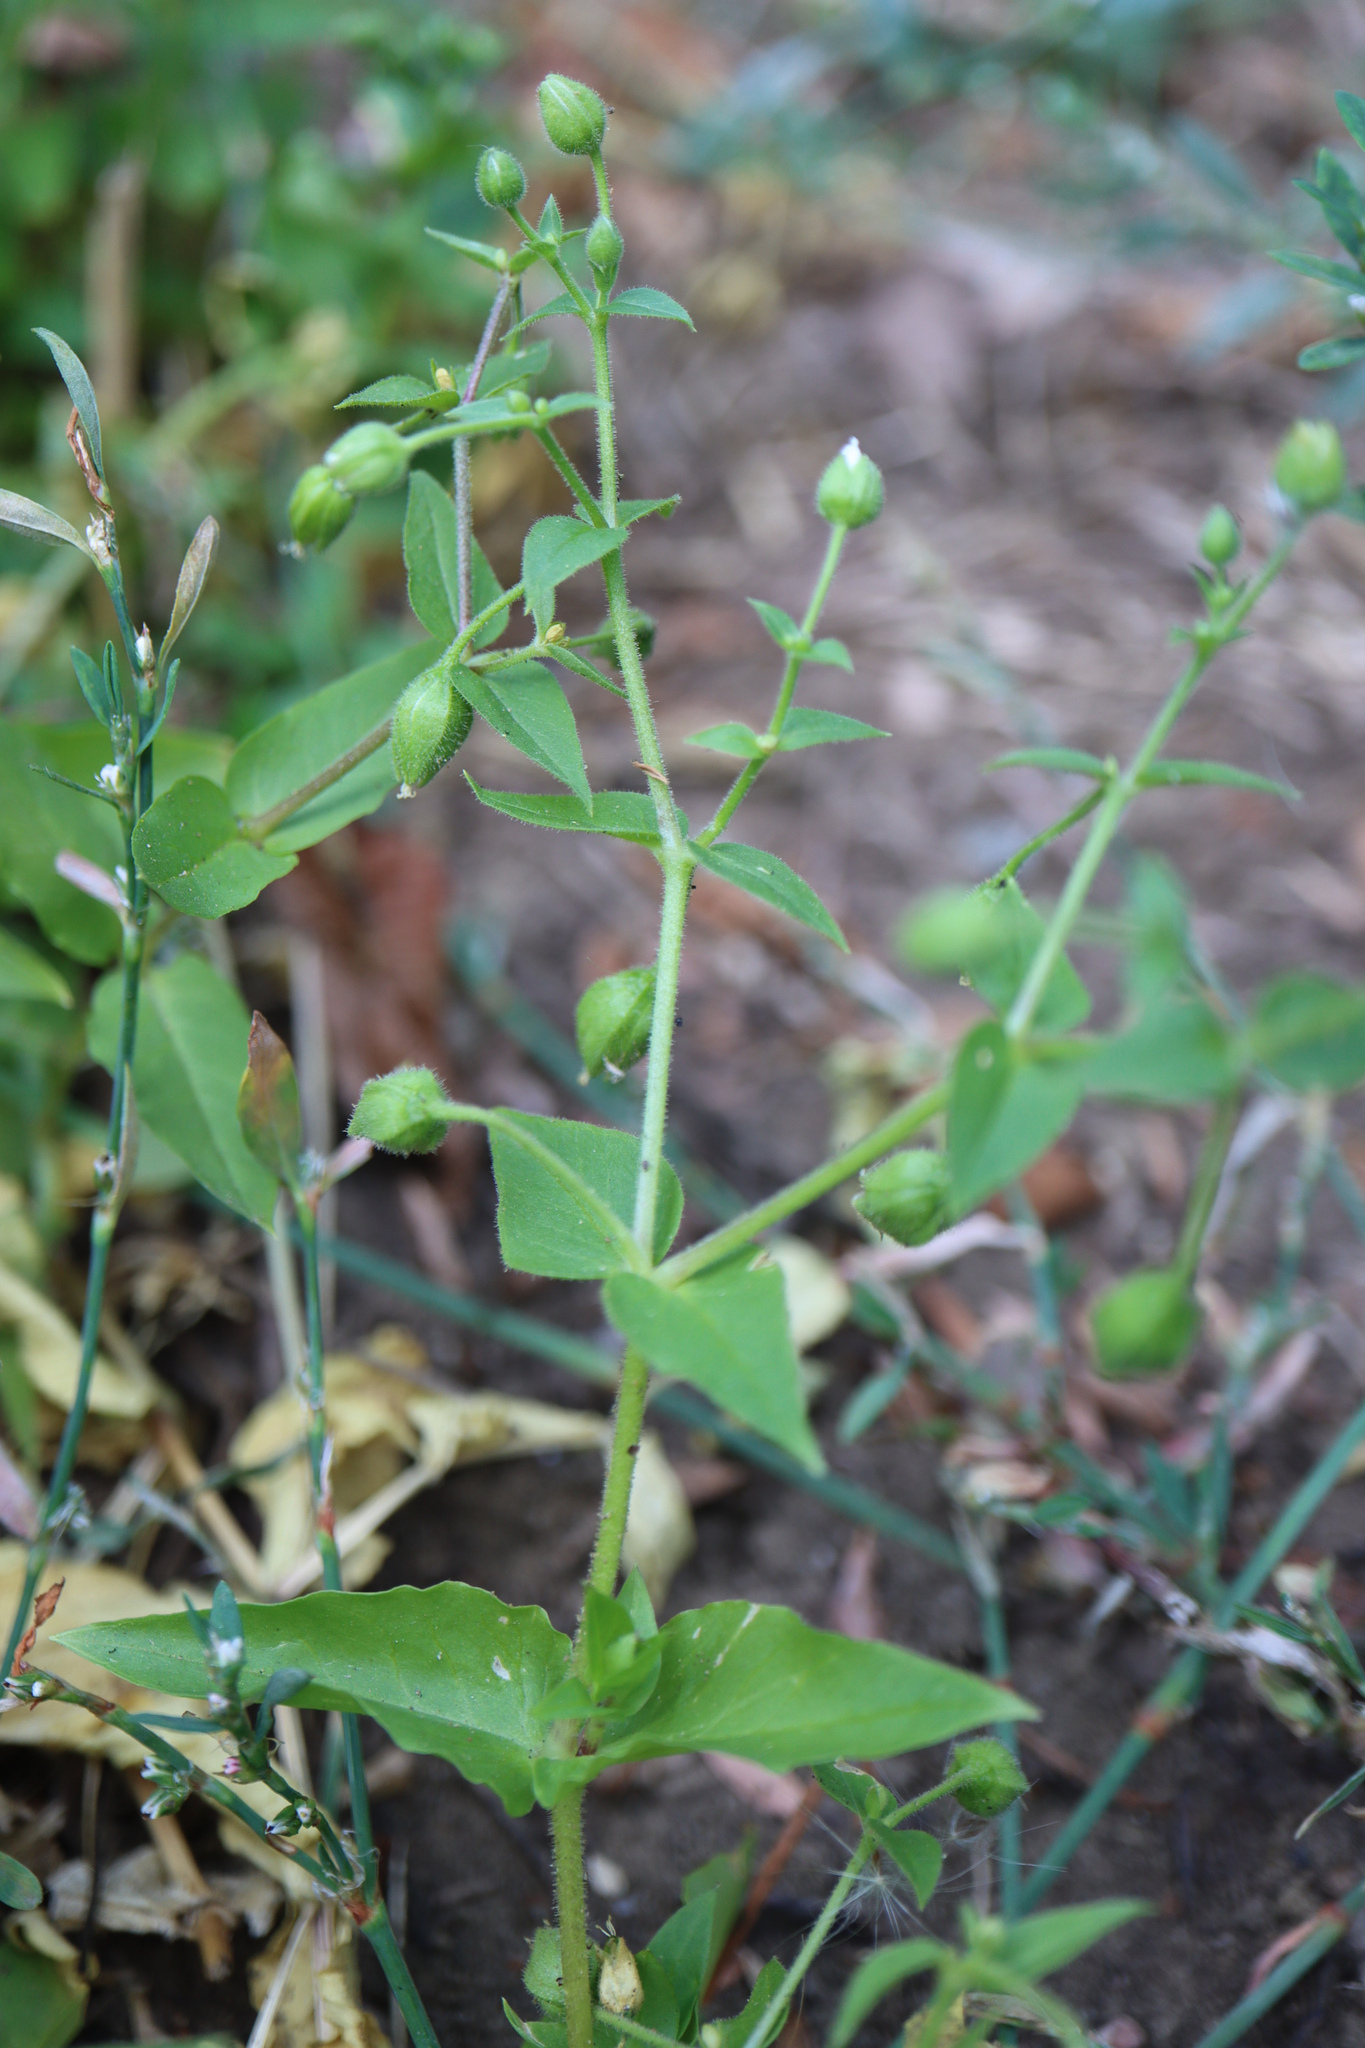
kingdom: Plantae
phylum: Tracheophyta
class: Magnoliopsida
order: Caryophyllales
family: Caryophyllaceae
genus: Stellaria
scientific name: Stellaria aquatica
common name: Water chickweed
